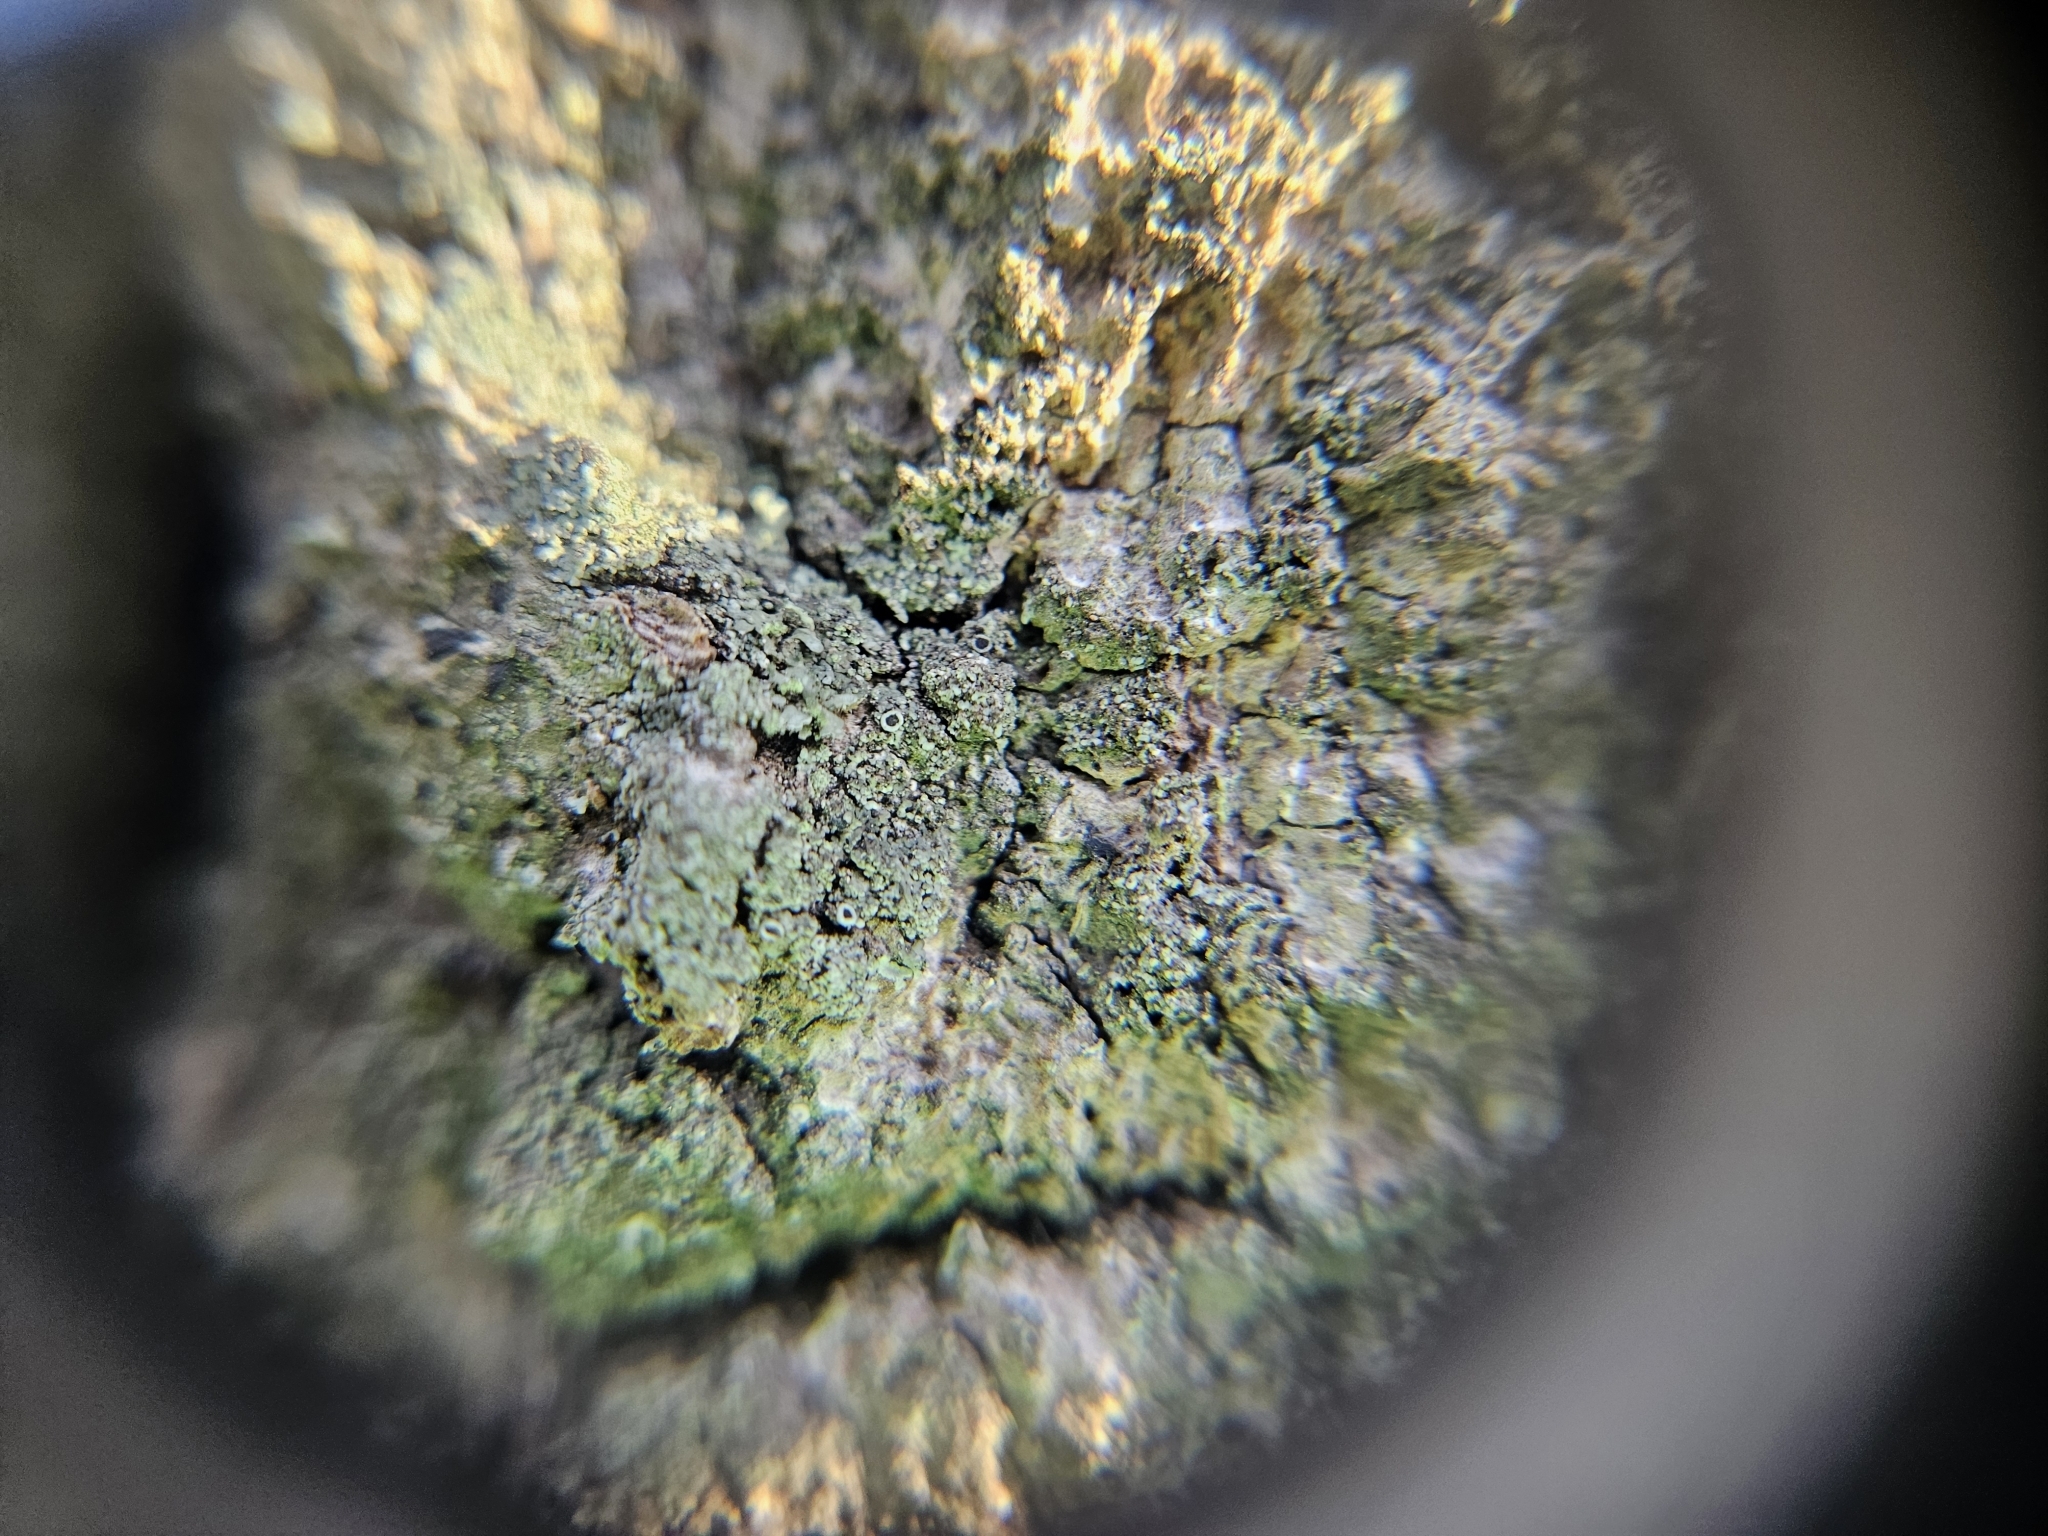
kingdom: Fungi
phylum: Ascomycota
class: Lecanoromycetes
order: Caliciales
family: Physciaceae
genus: Hyperphyscia
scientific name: Hyperphyscia adglutinata
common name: Grainy shadow-crust lichen
